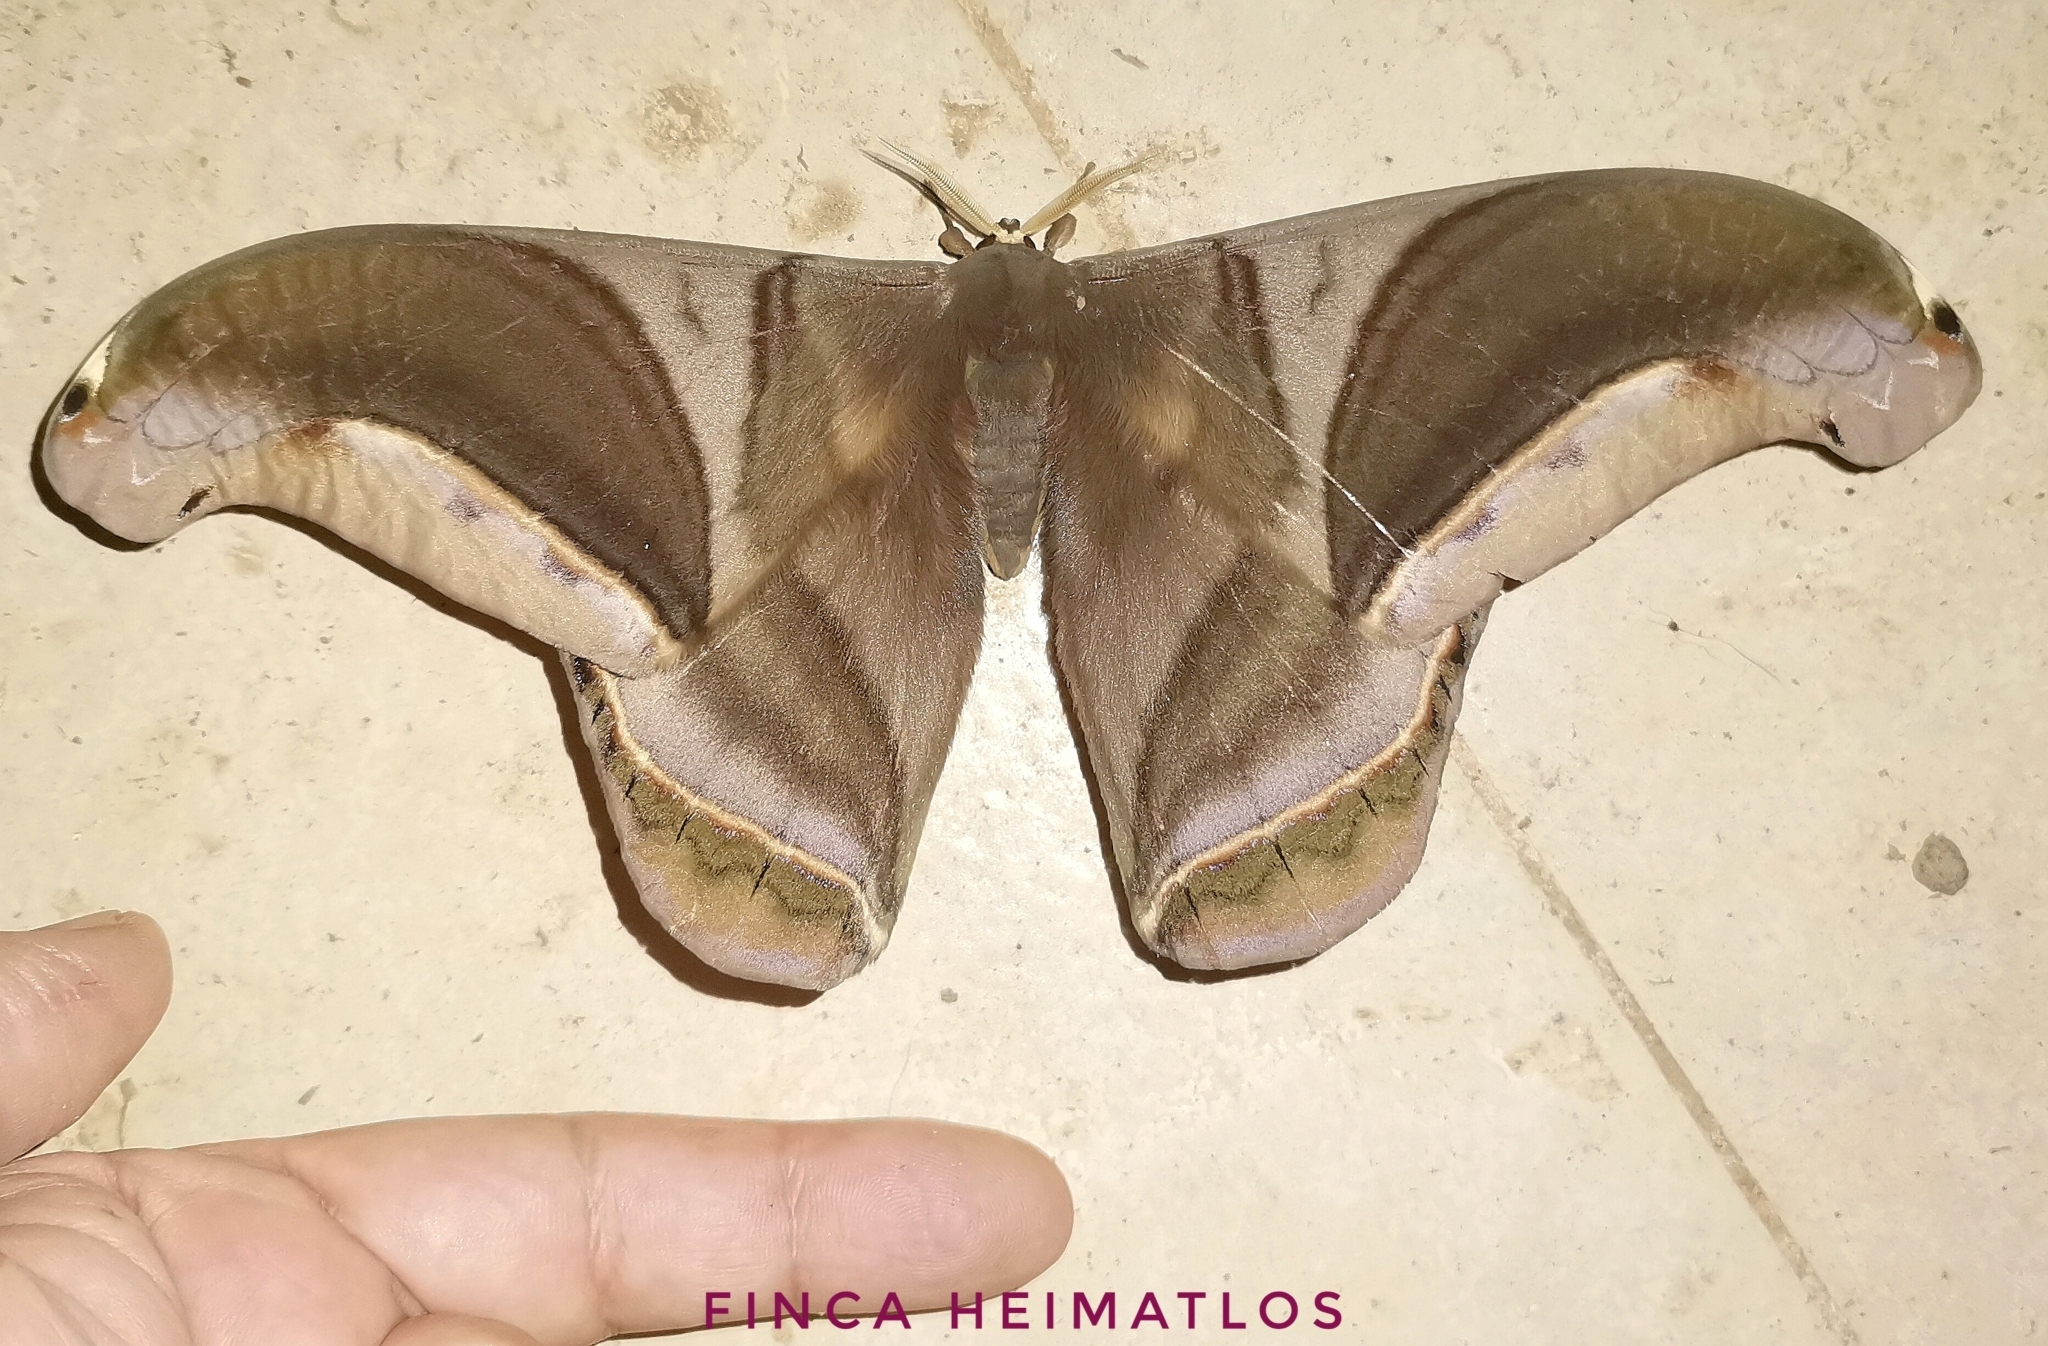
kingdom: Animalia
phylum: Arthropoda
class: Insecta
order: Lepidoptera
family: Saturniidae
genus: Rhescyntis
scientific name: Rhescyntis hippodamia
